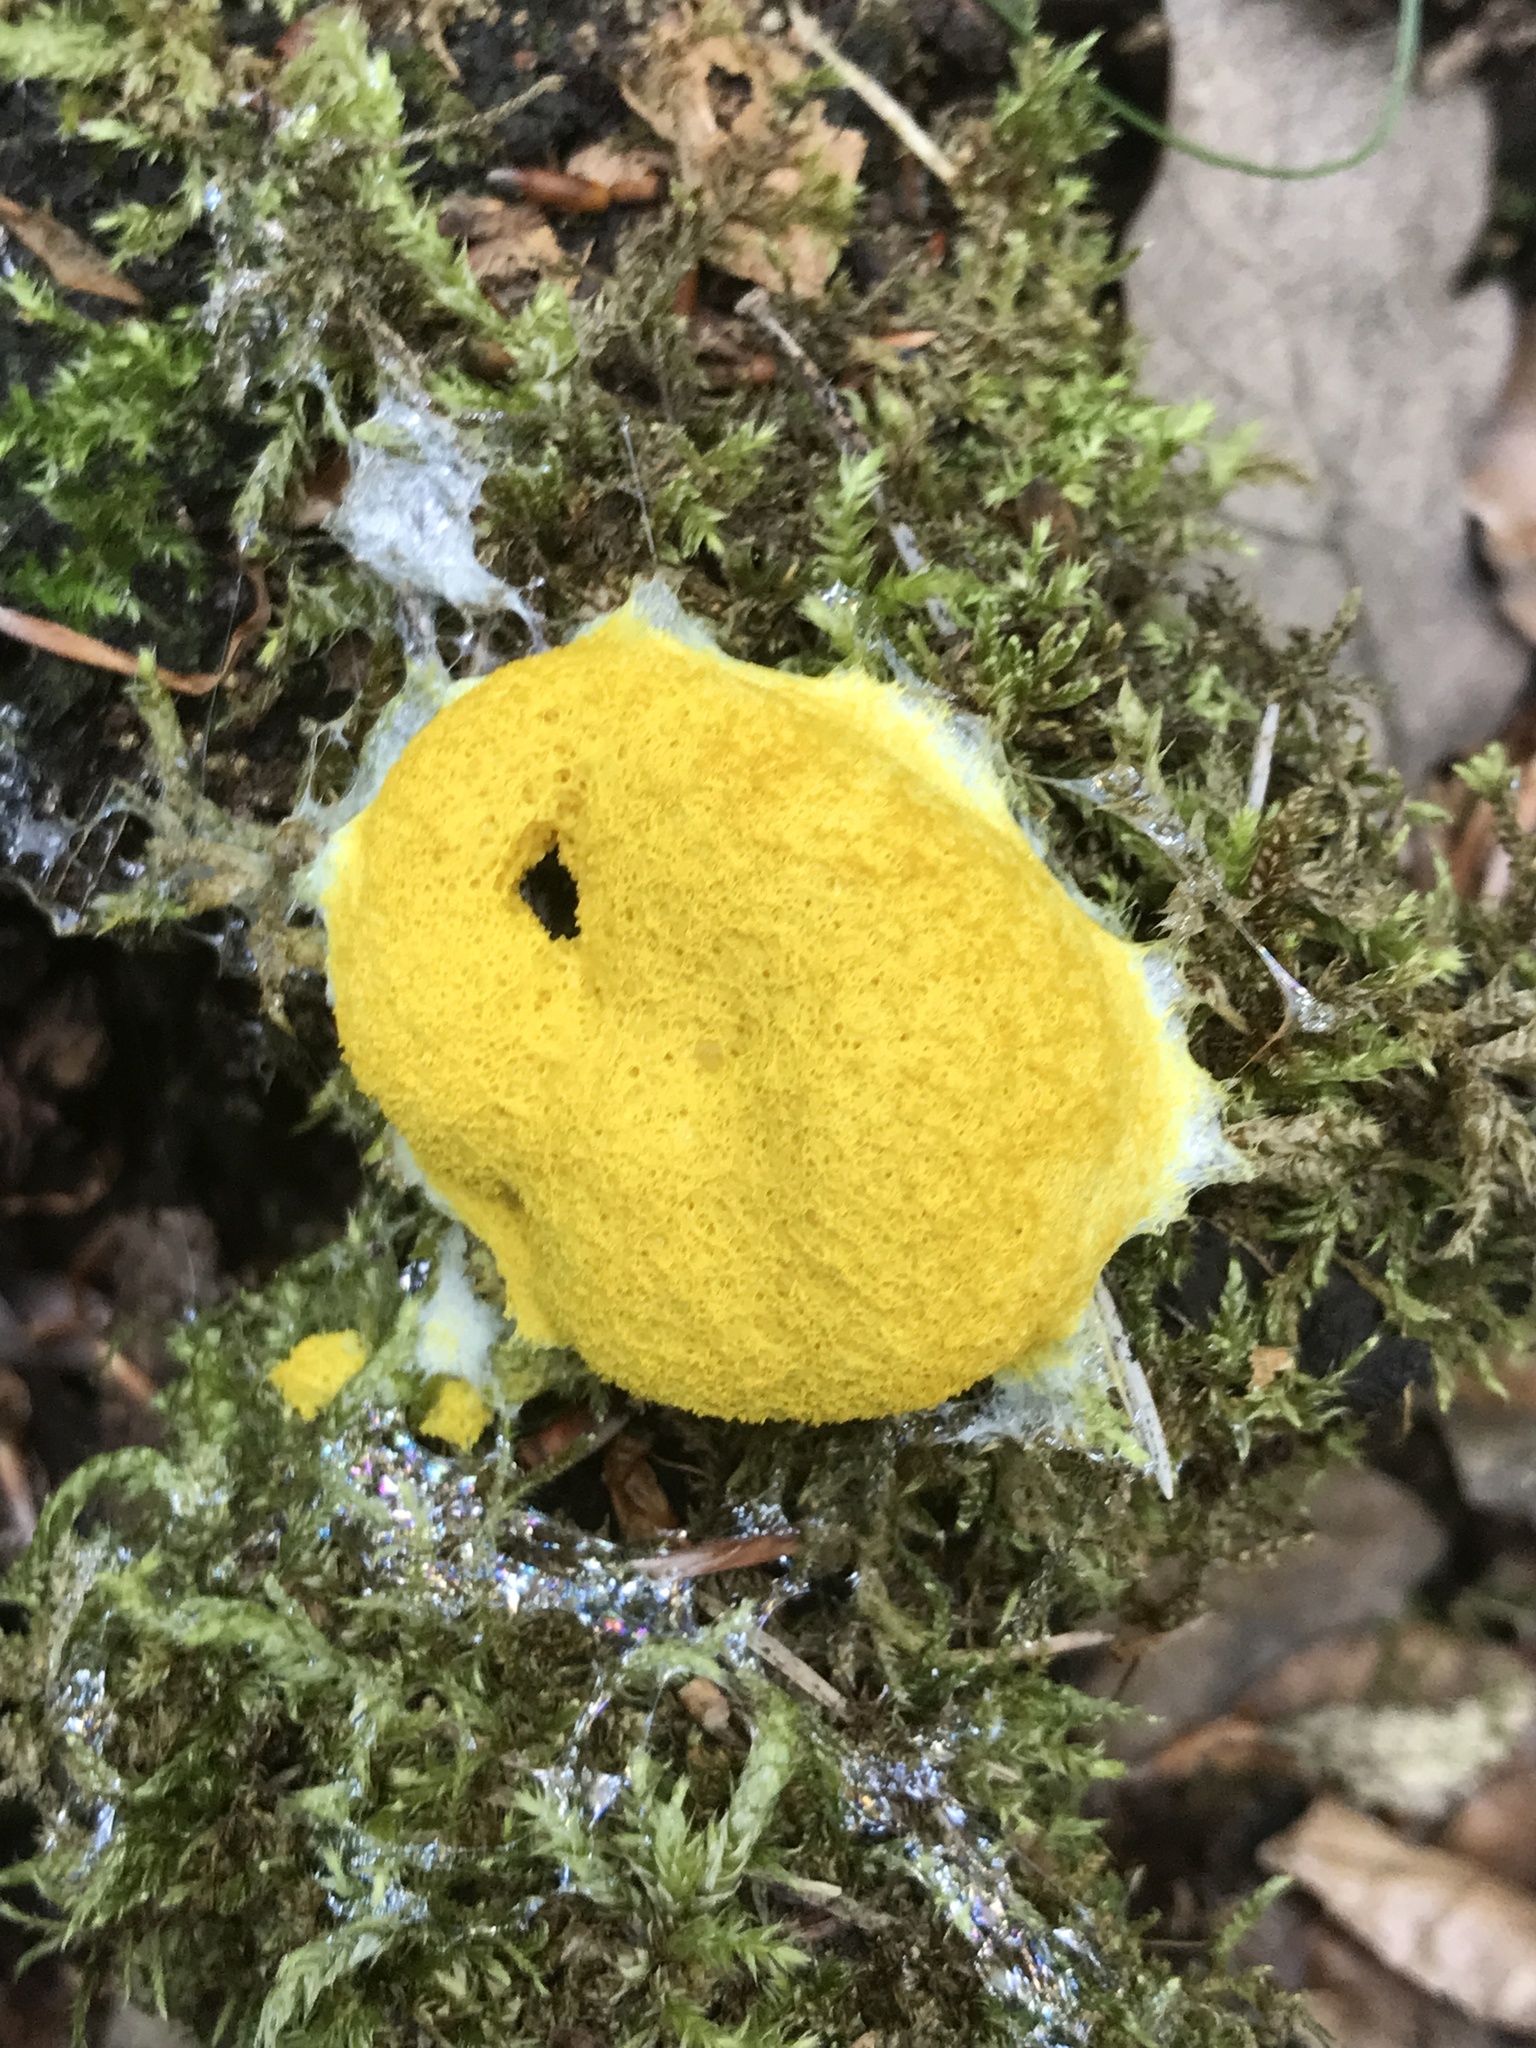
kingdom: Protozoa
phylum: Mycetozoa
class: Myxomycetes
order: Physarales
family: Physaraceae
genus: Fuligo
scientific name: Fuligo septica
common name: Dog vomit slime mold
